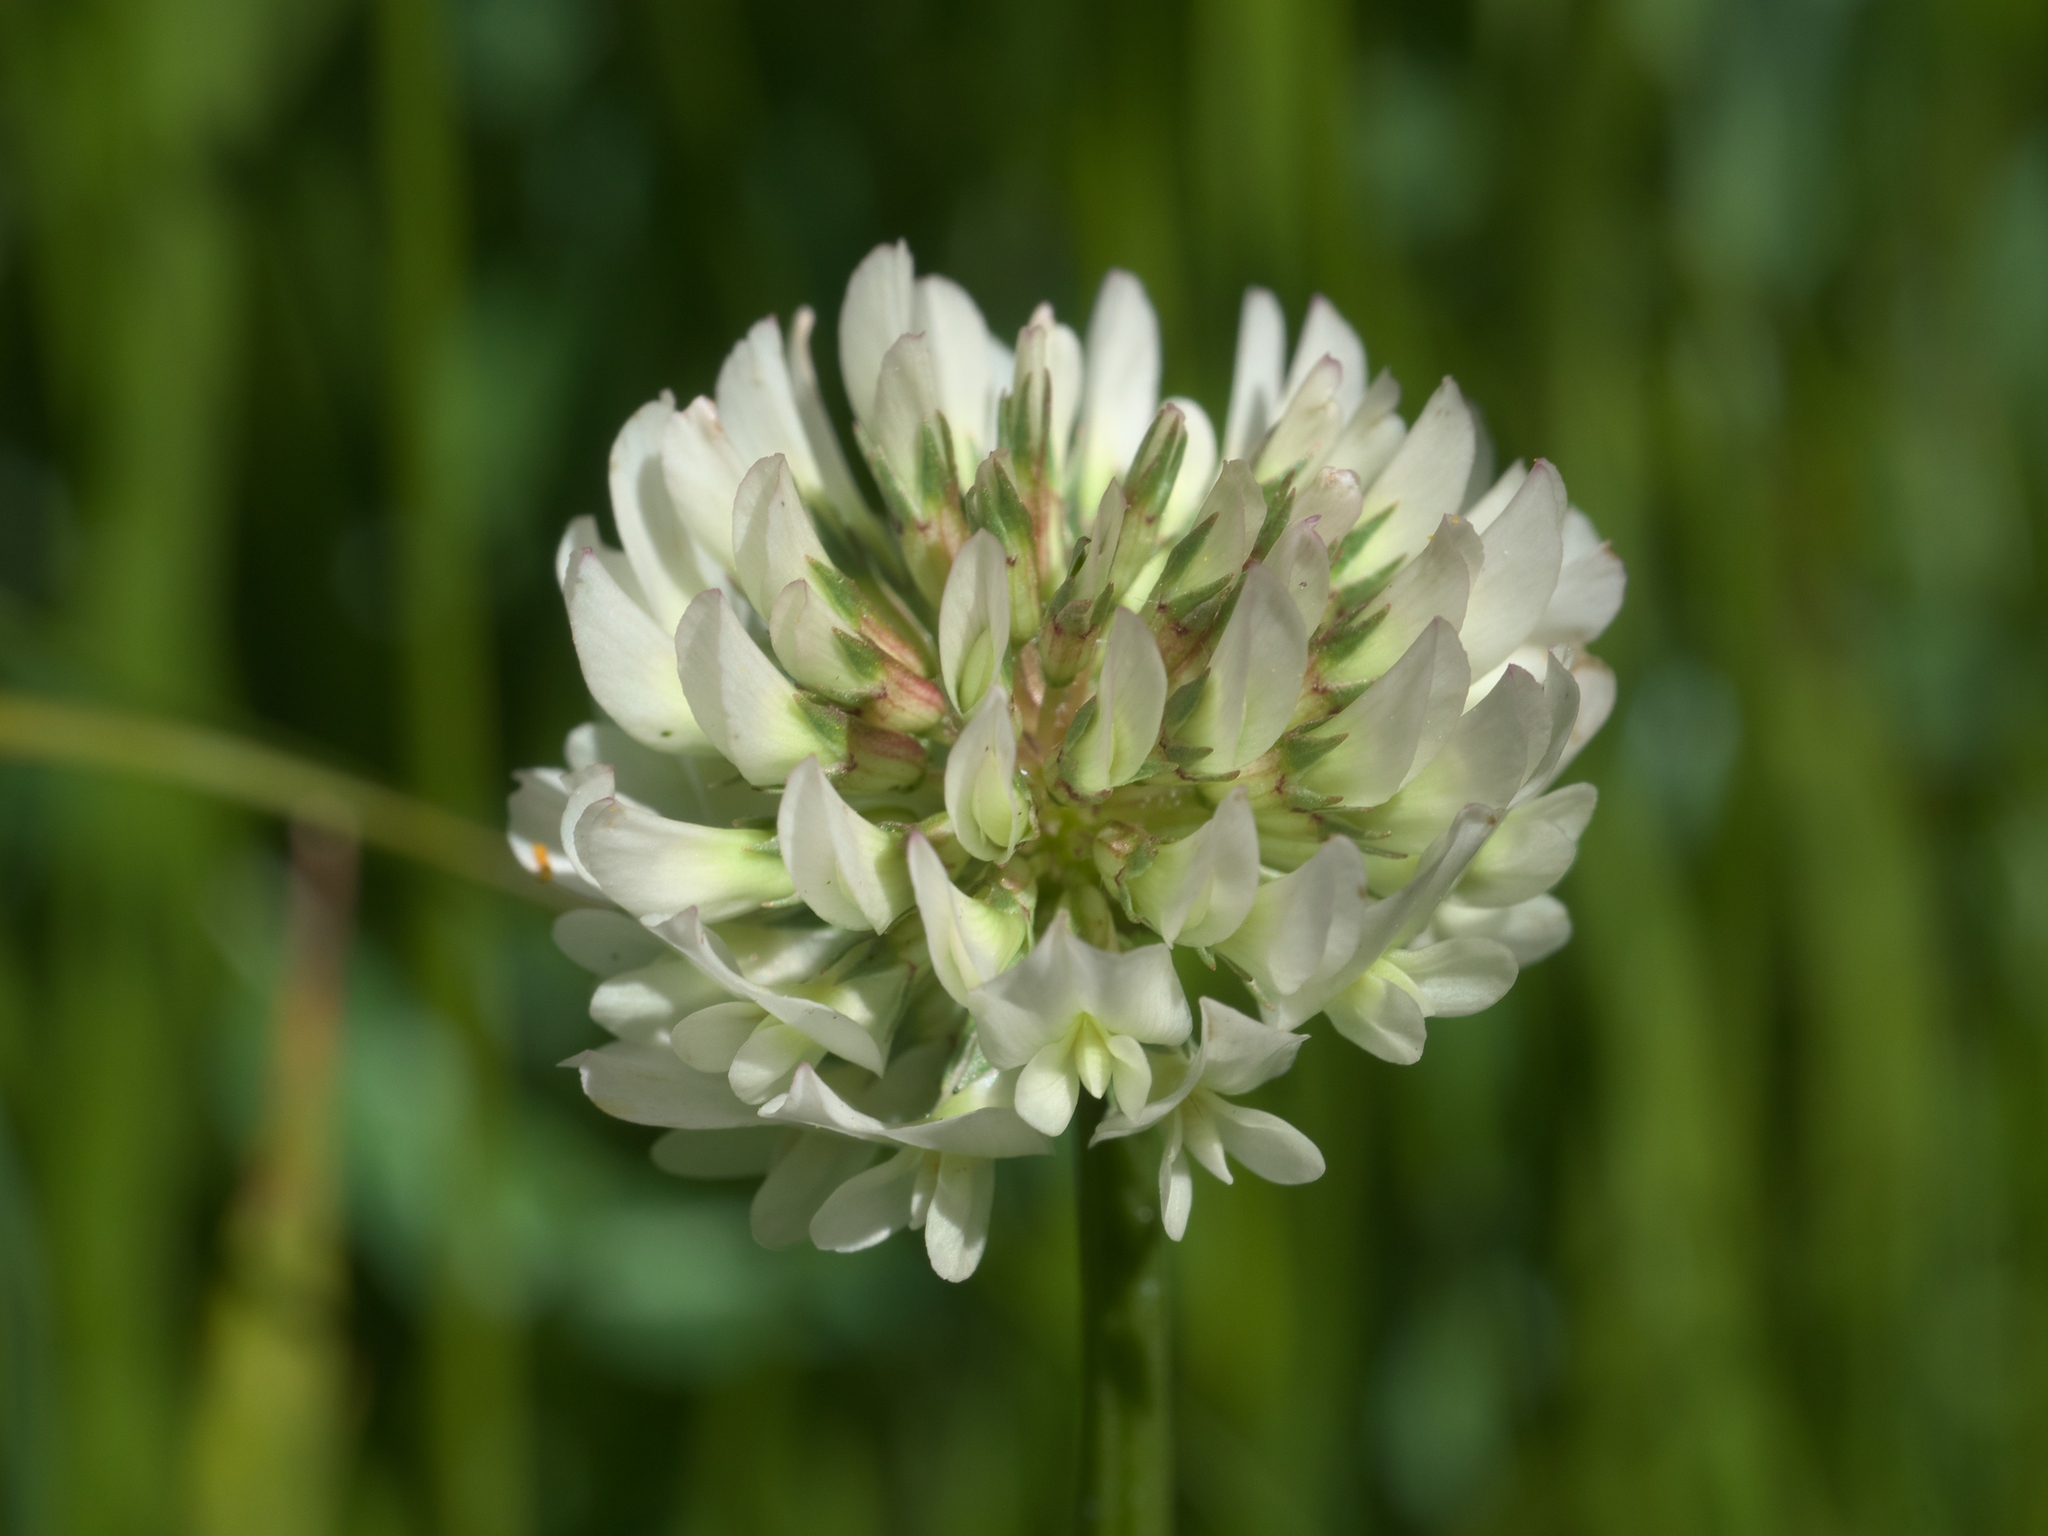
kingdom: Plantae
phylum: Tracheophyta
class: Magnoliopsida
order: Fabales
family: Fabaceae
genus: Trifolium
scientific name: Trifolium repens
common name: White clover
